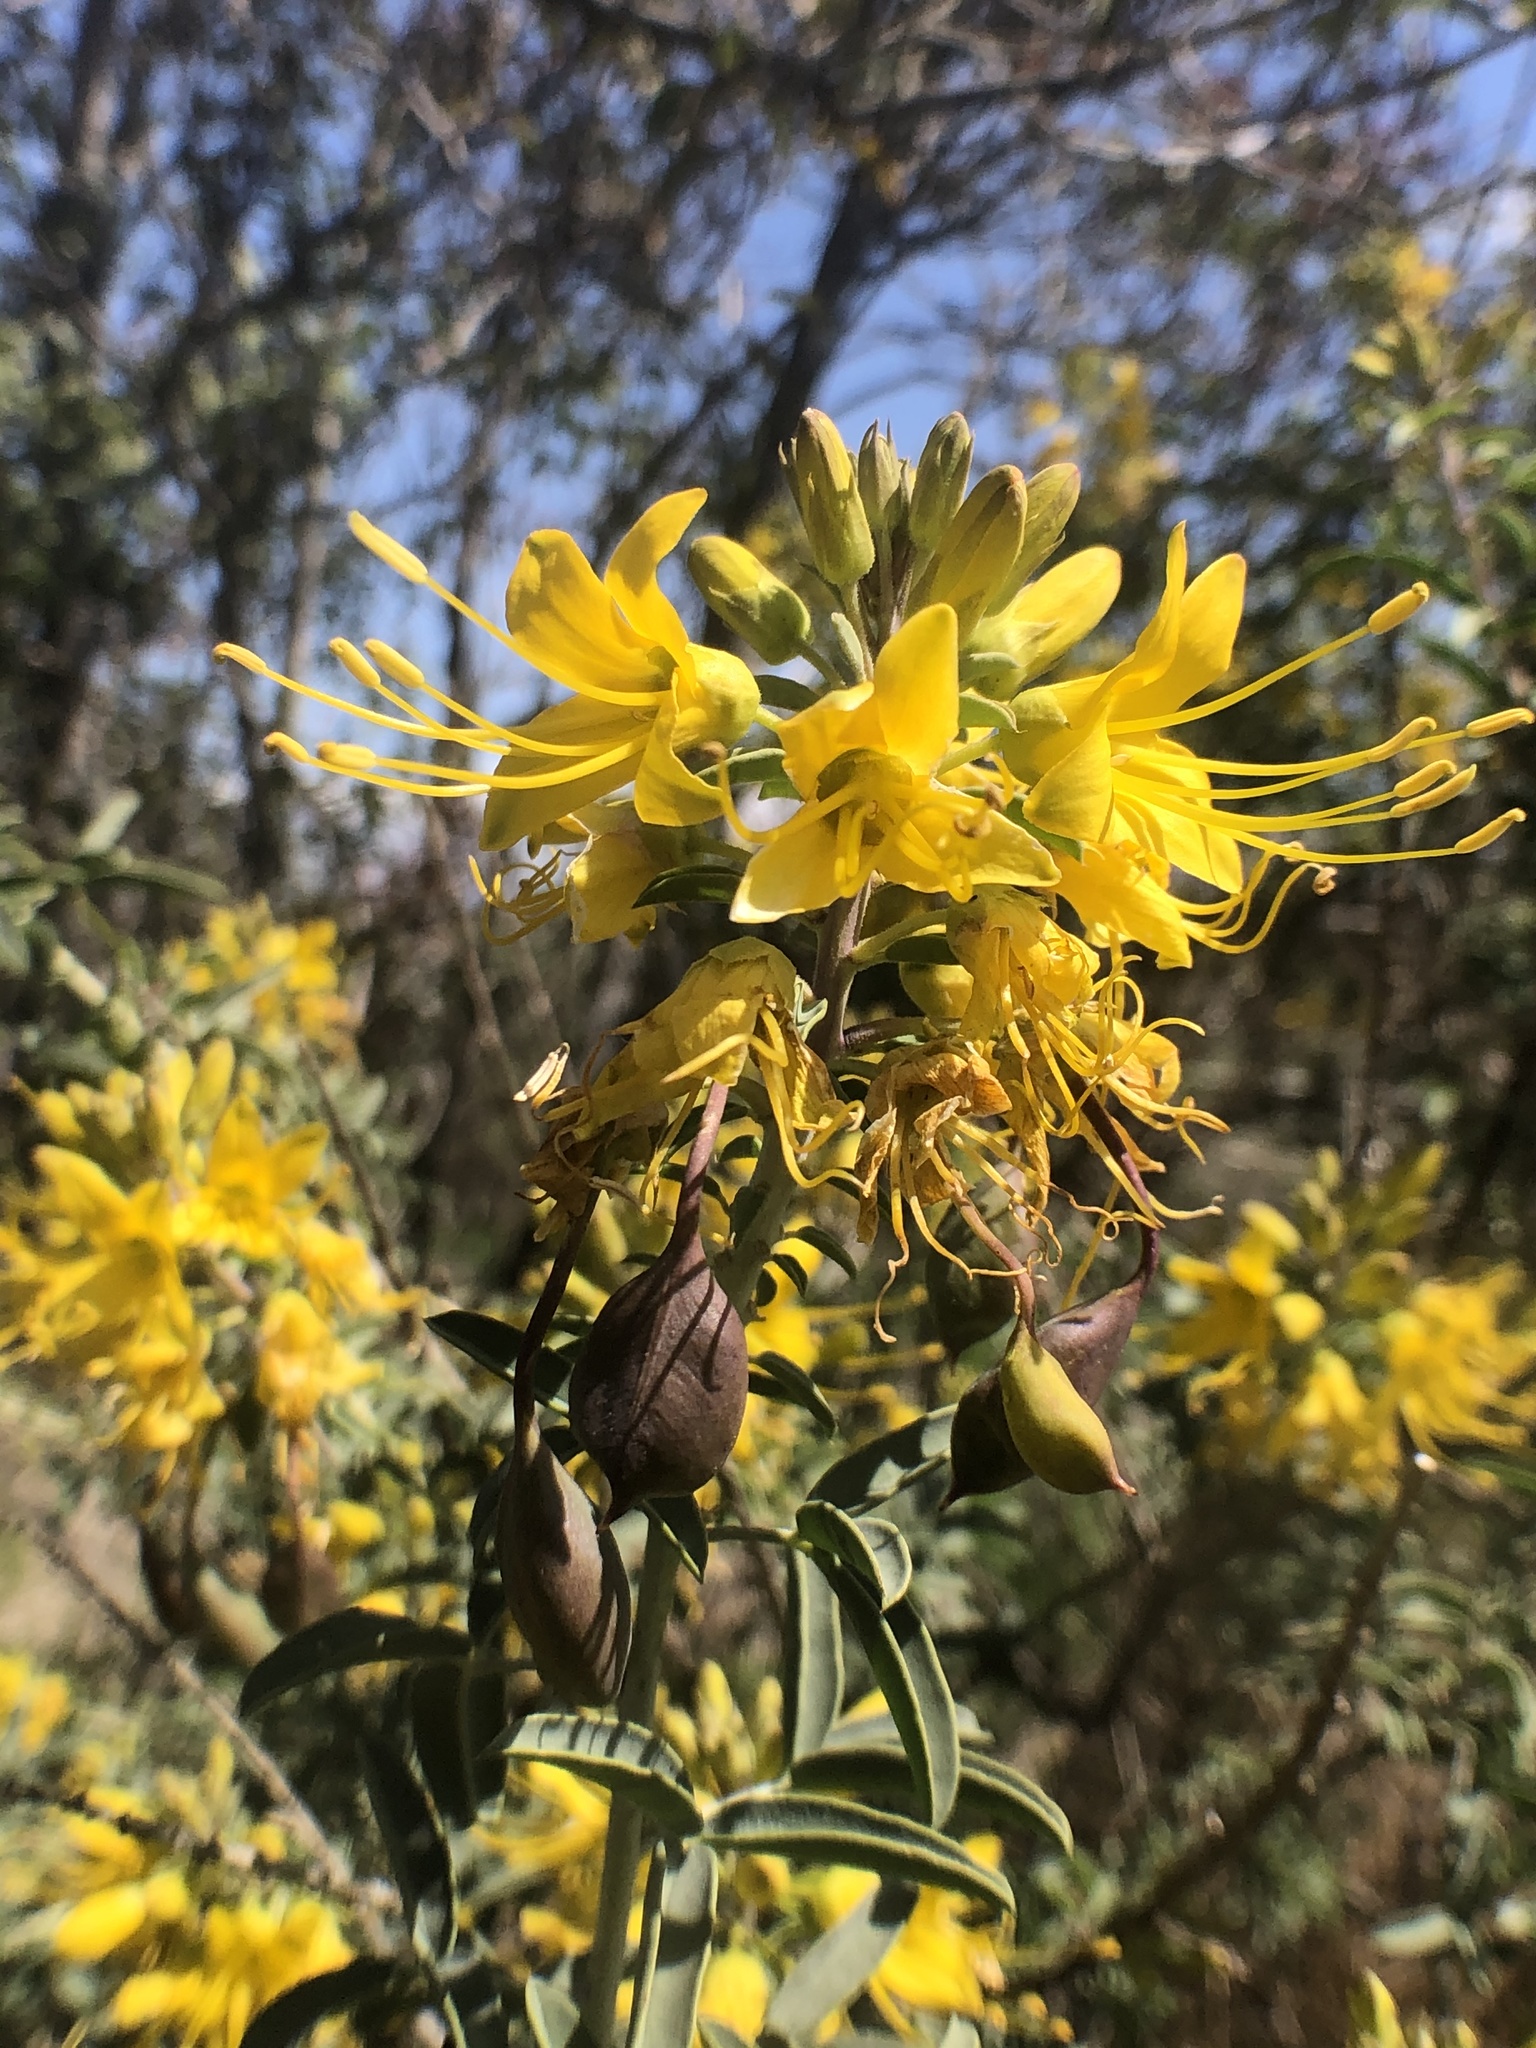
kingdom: Plantae
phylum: Tracheophyta
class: Magnoliopsida
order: Brassicales
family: Cleomaceae
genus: Cleomella
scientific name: Cleomella arborea
